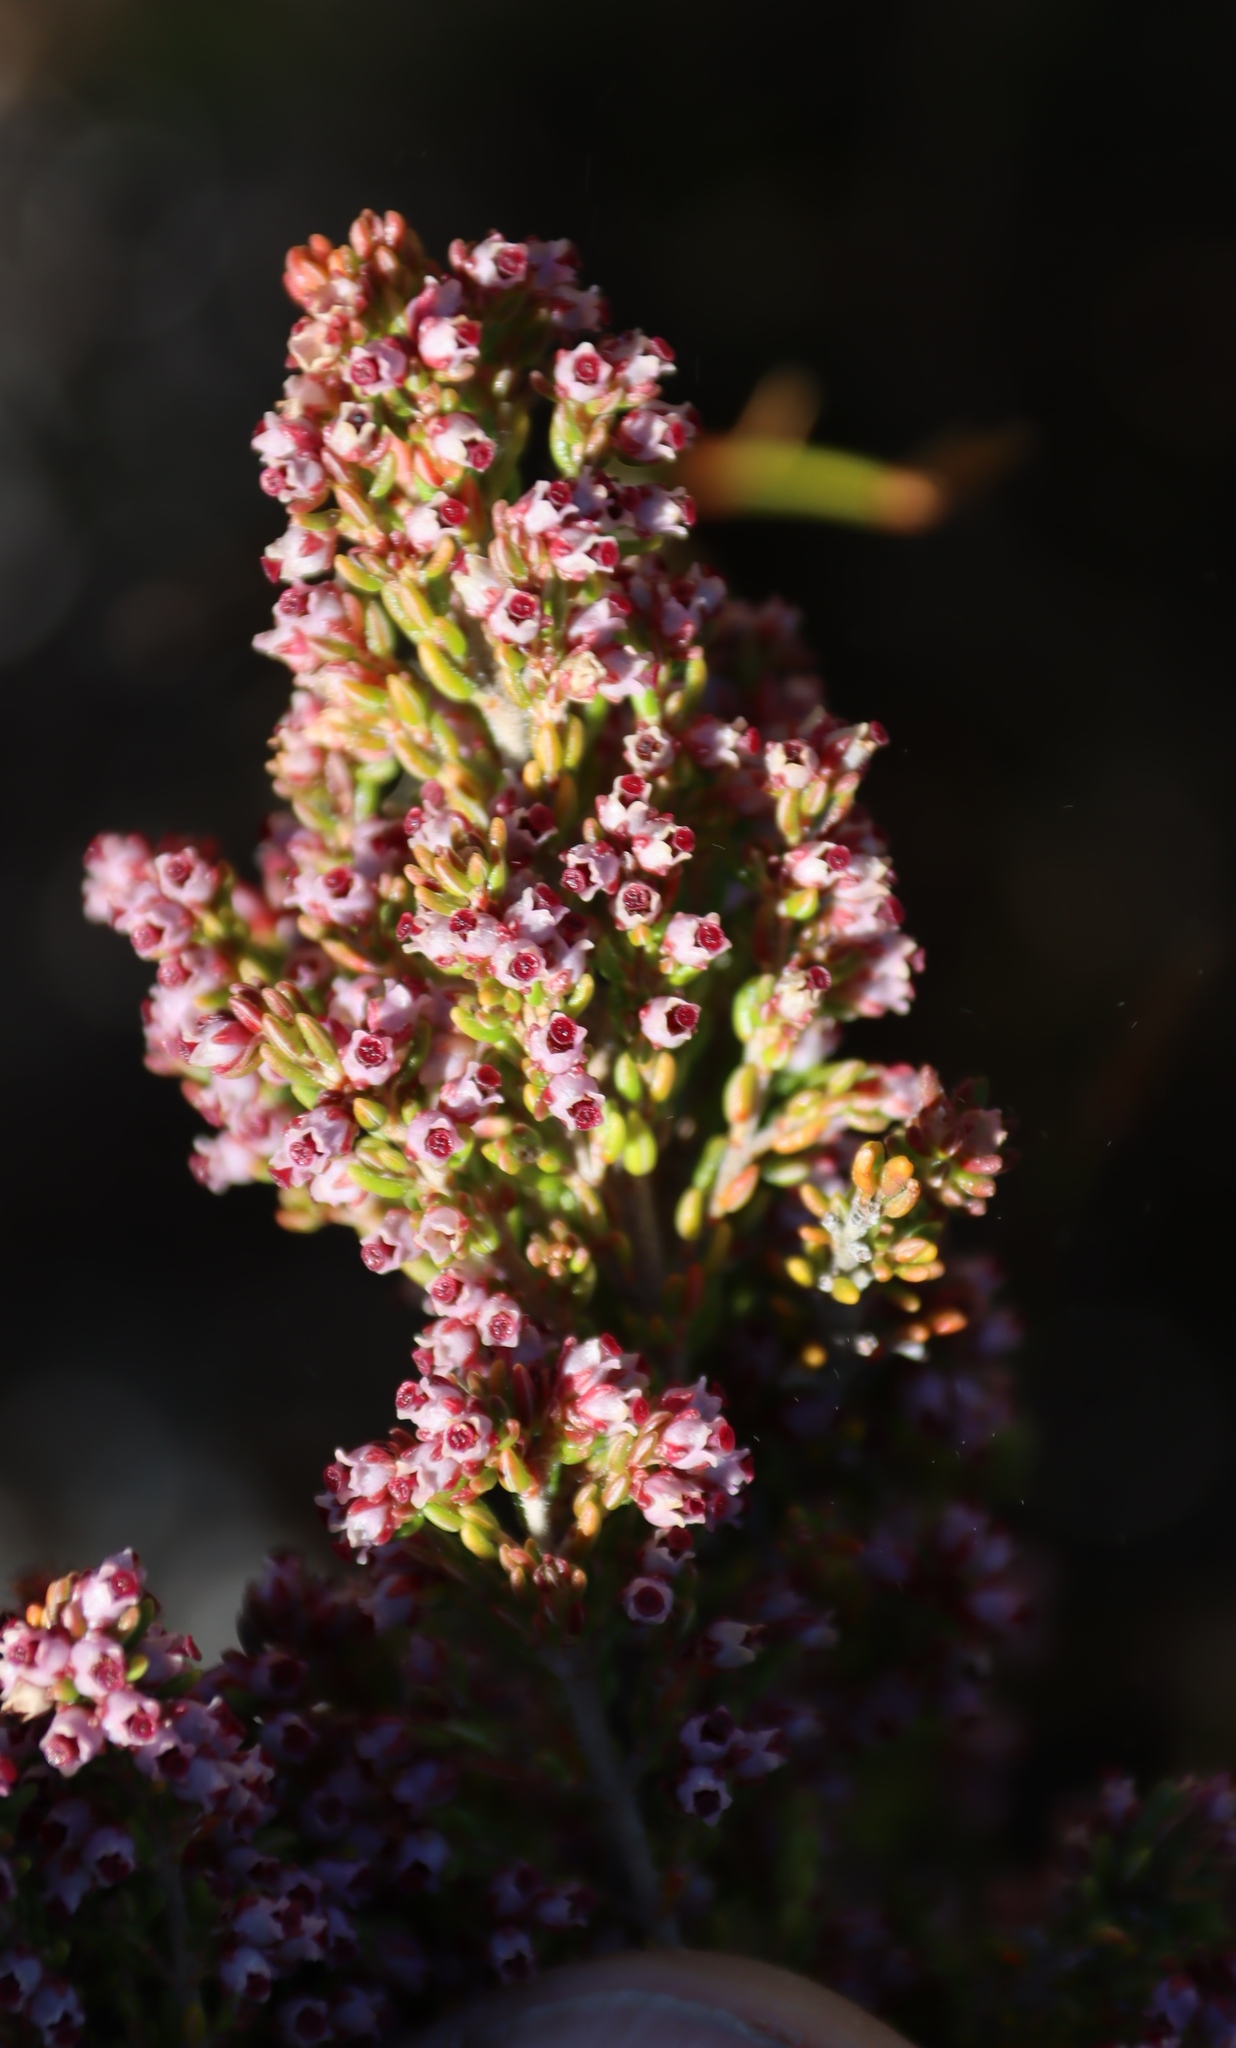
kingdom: Plantae
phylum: Tracheophyta
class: Magnoliopsida
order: Ericales
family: Ericaceae
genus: Erica
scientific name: Erica hispidula
